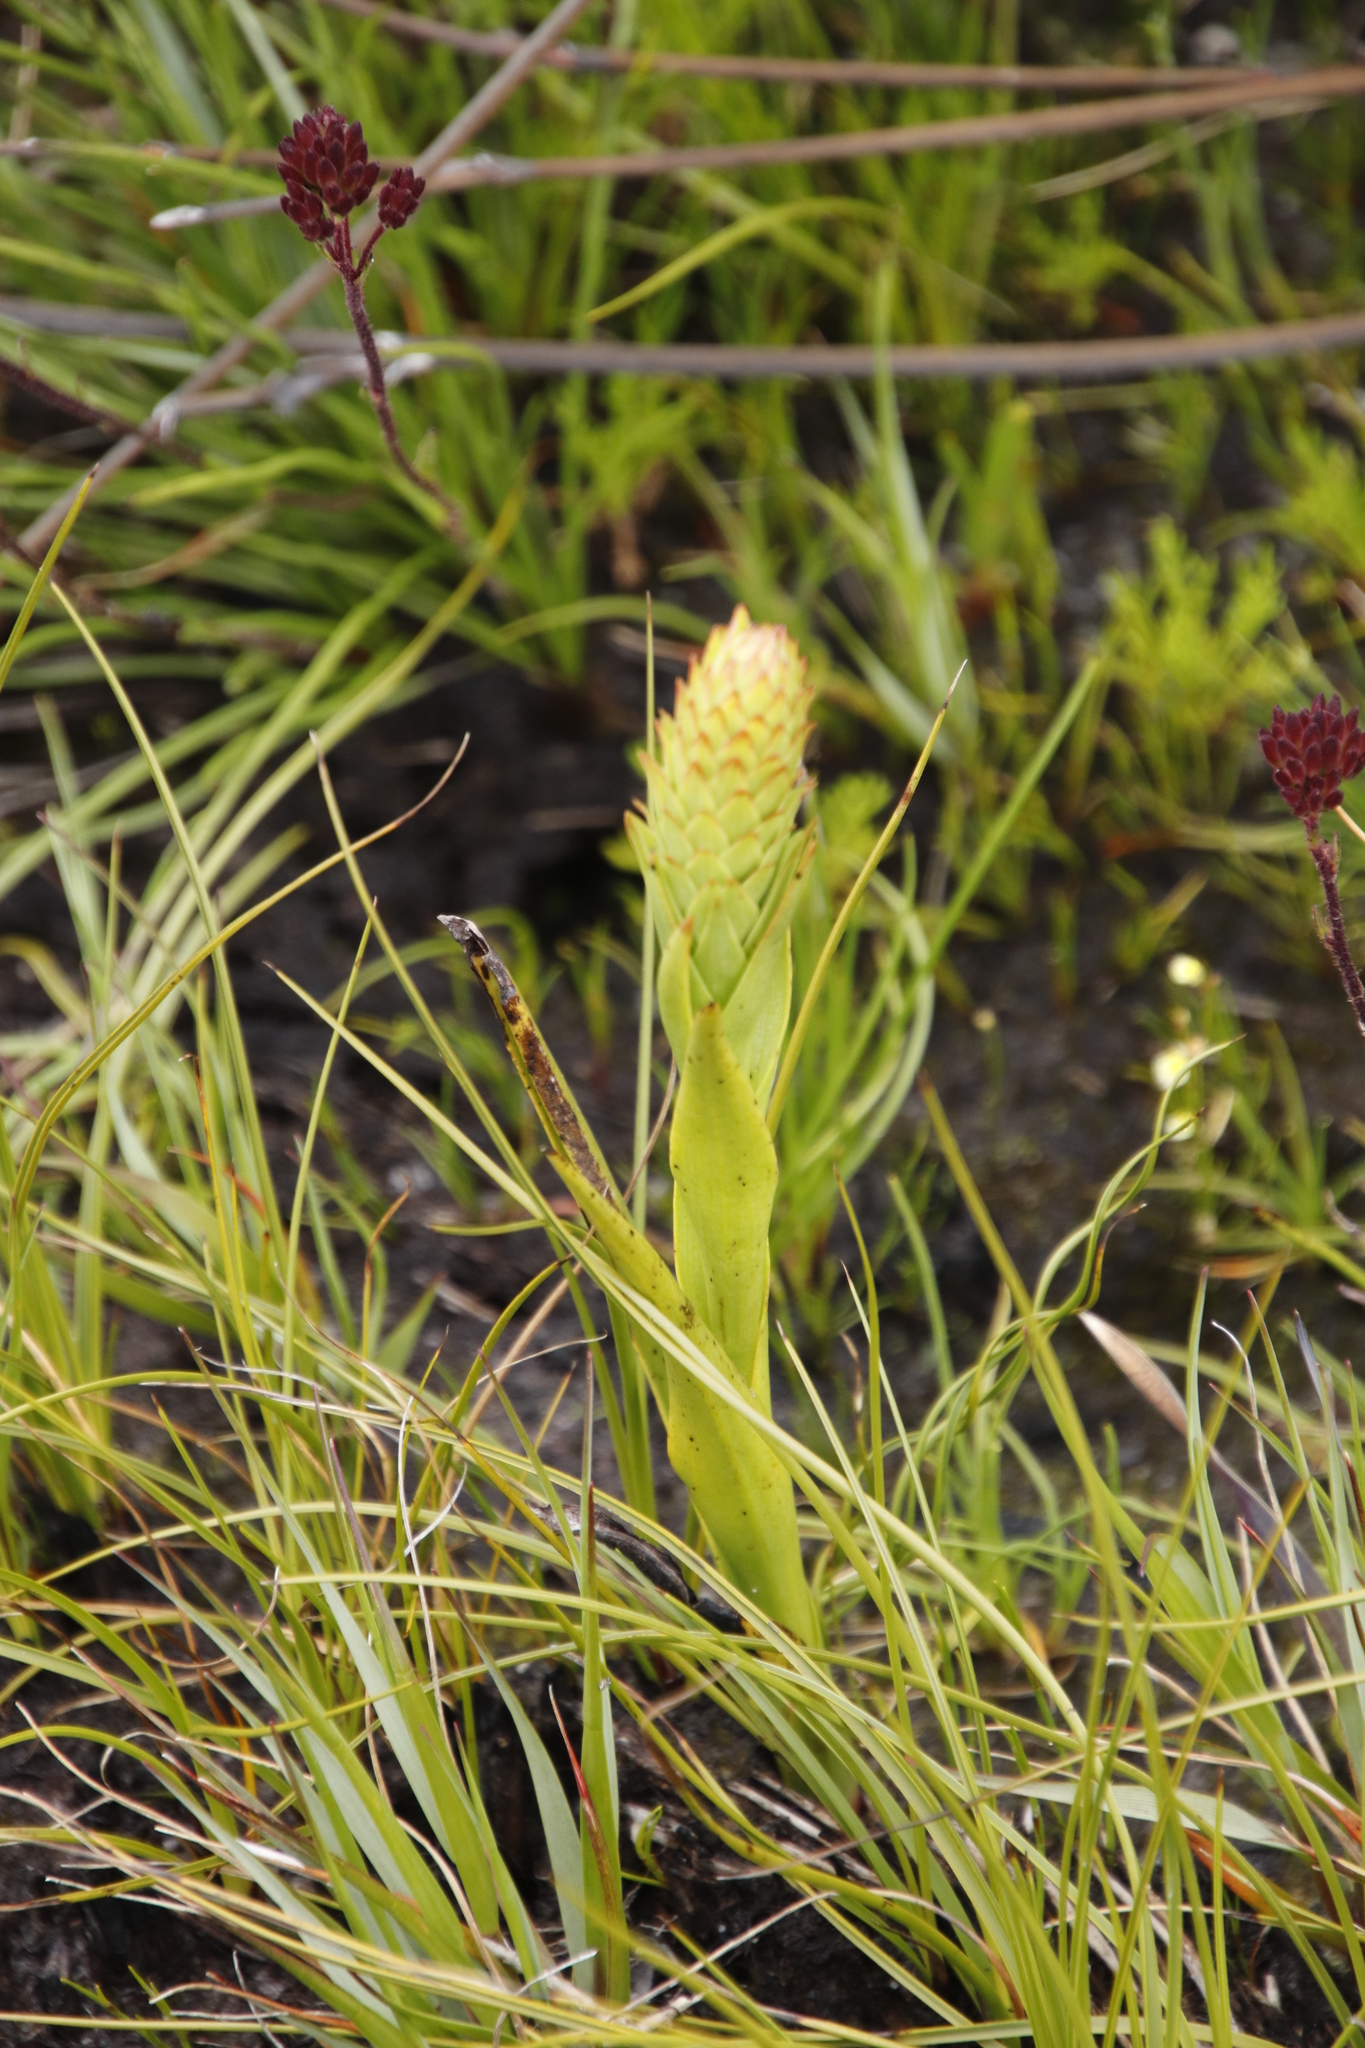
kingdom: Plantae
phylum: Tracheophyta
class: Liliopsida
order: Asparagales
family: Orchidaceae
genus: Evotella
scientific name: Evotella carnosa
